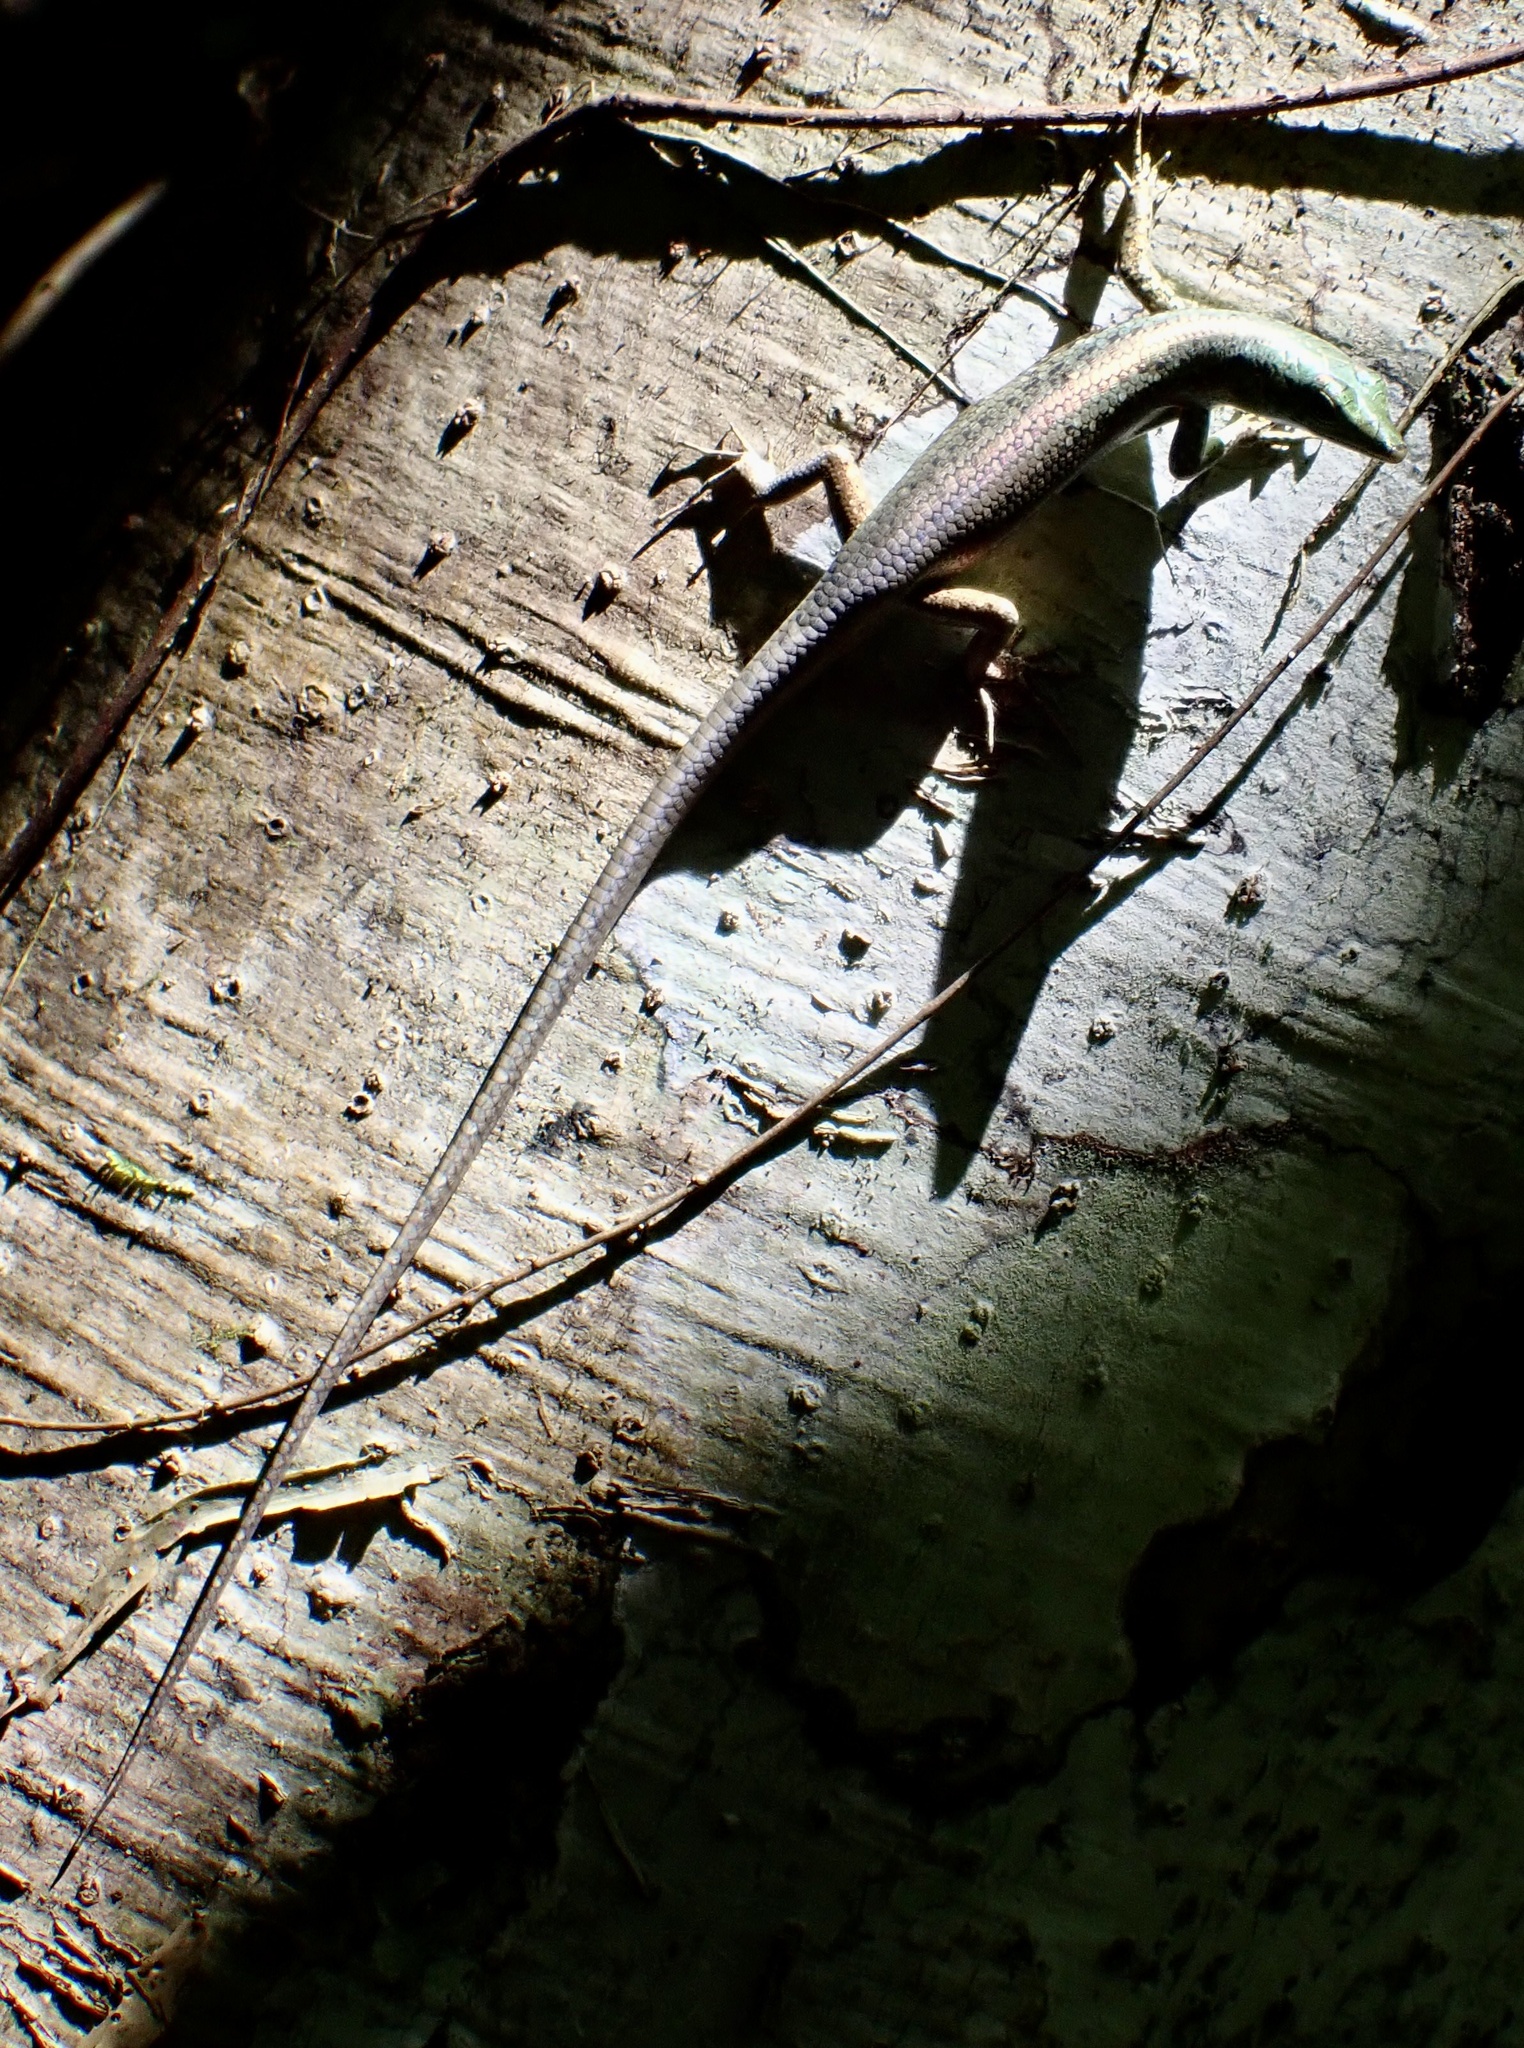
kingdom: Animalia
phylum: Chordata
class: Squamata
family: Scincidae
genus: Emoia
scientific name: Emoia kordoana
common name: Slender tree skink
